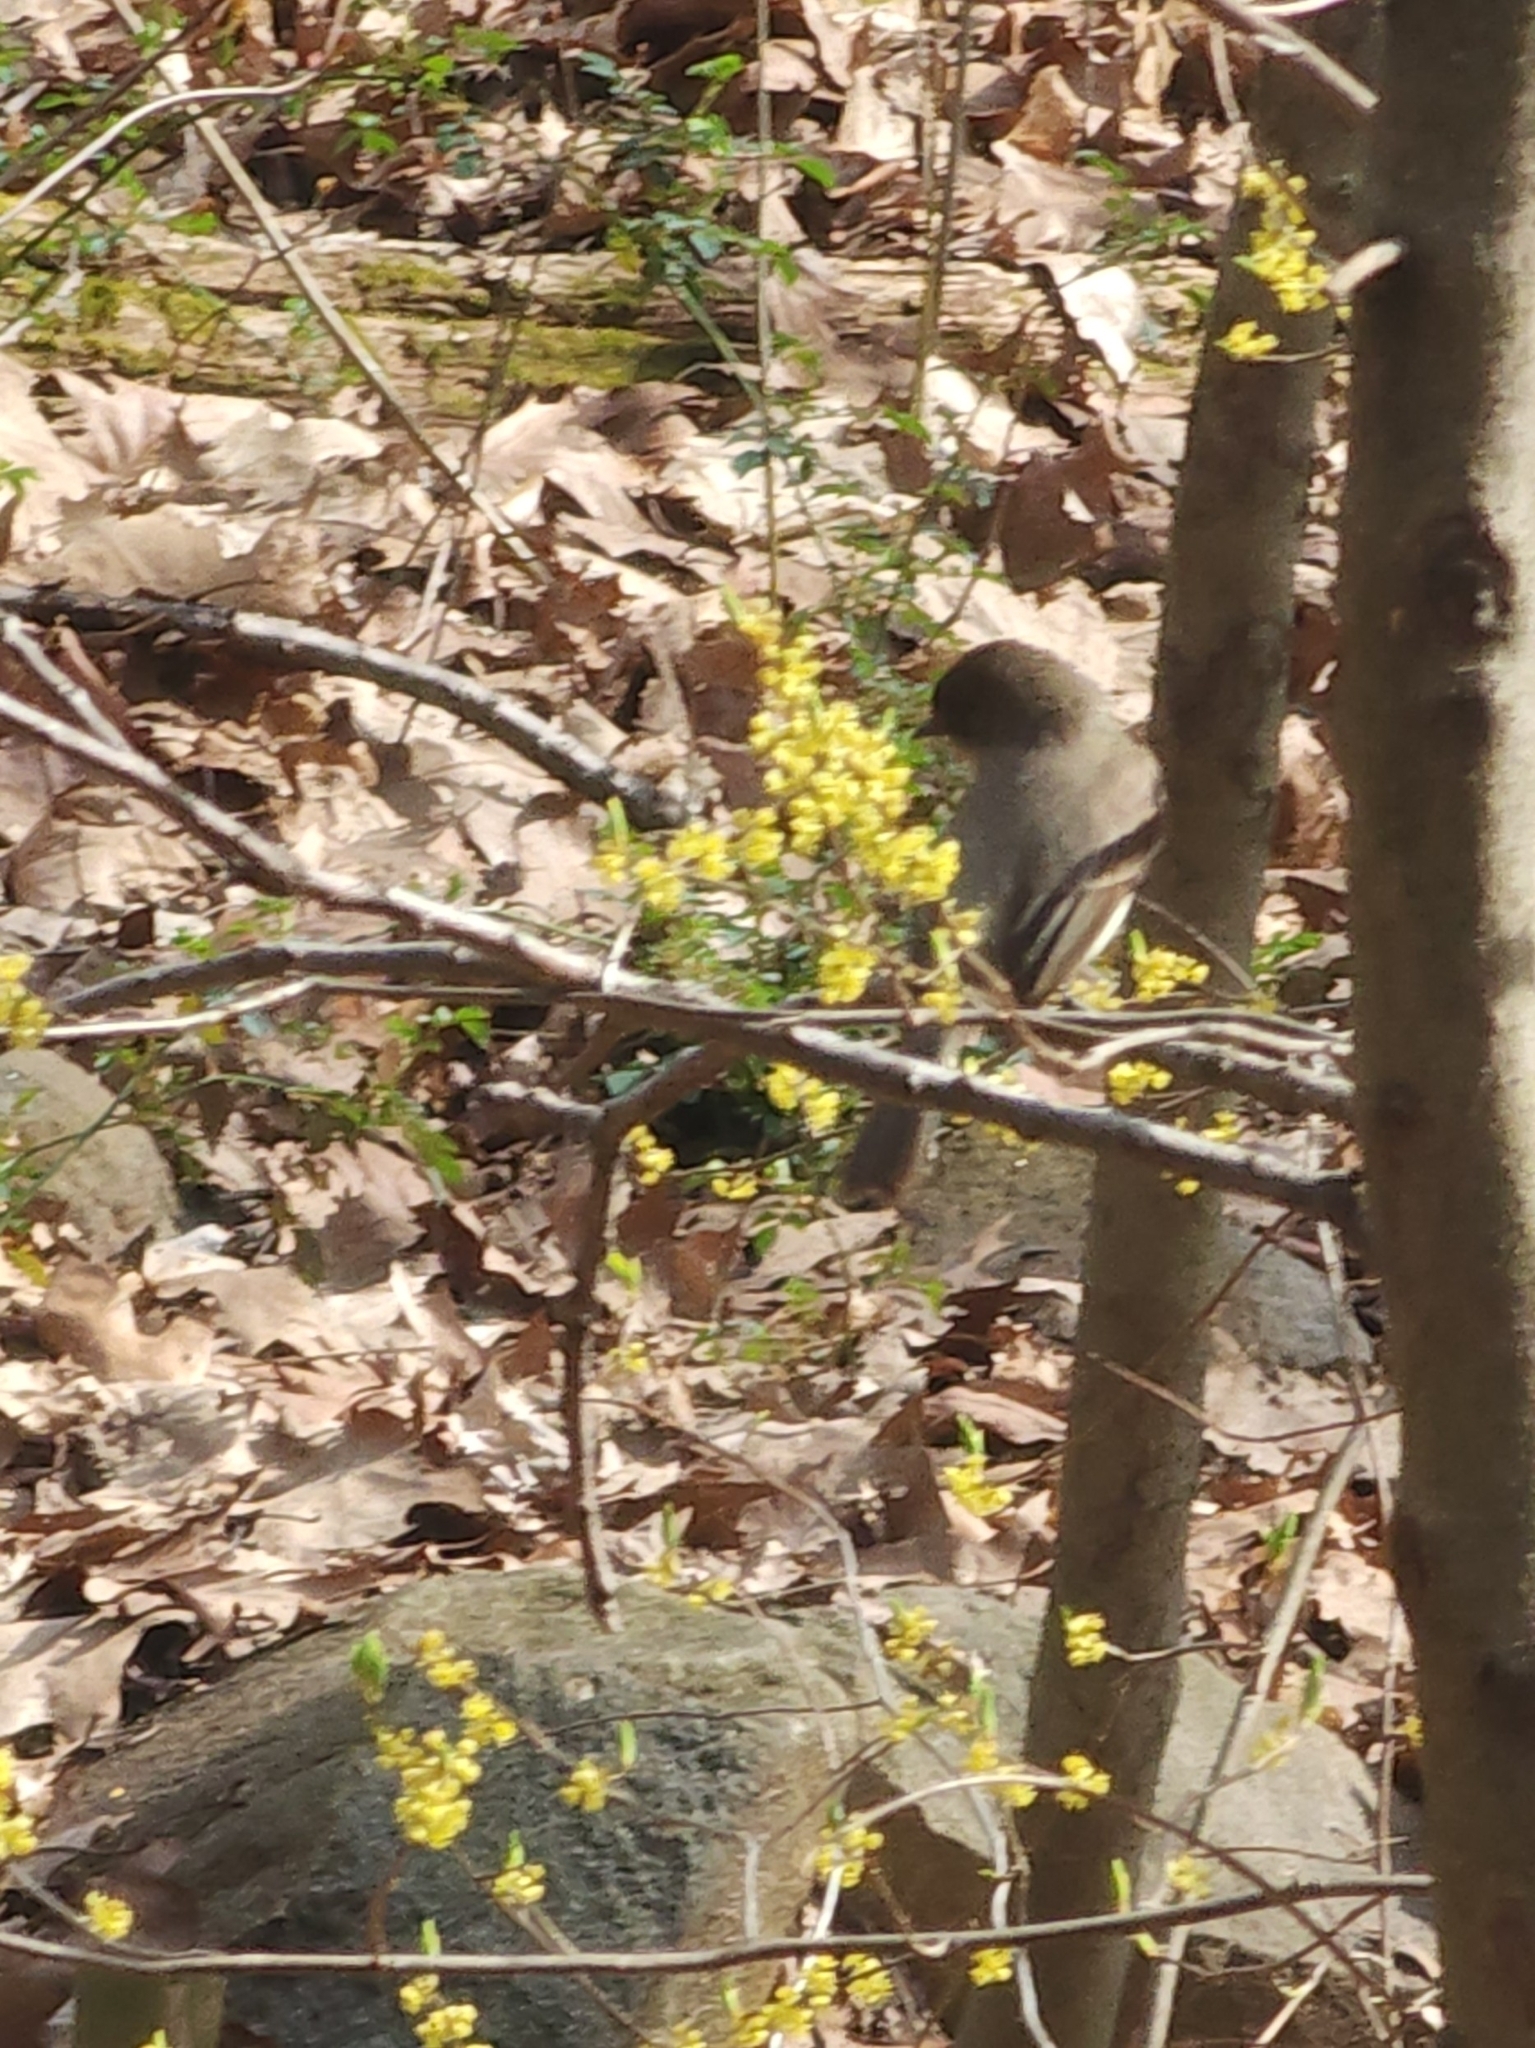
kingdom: Animalia
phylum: Chordata
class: Aves
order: Passeriformes
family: Tyrannidae
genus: Sayornis
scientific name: Sayornis phoebe
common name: Eastern phoebe
